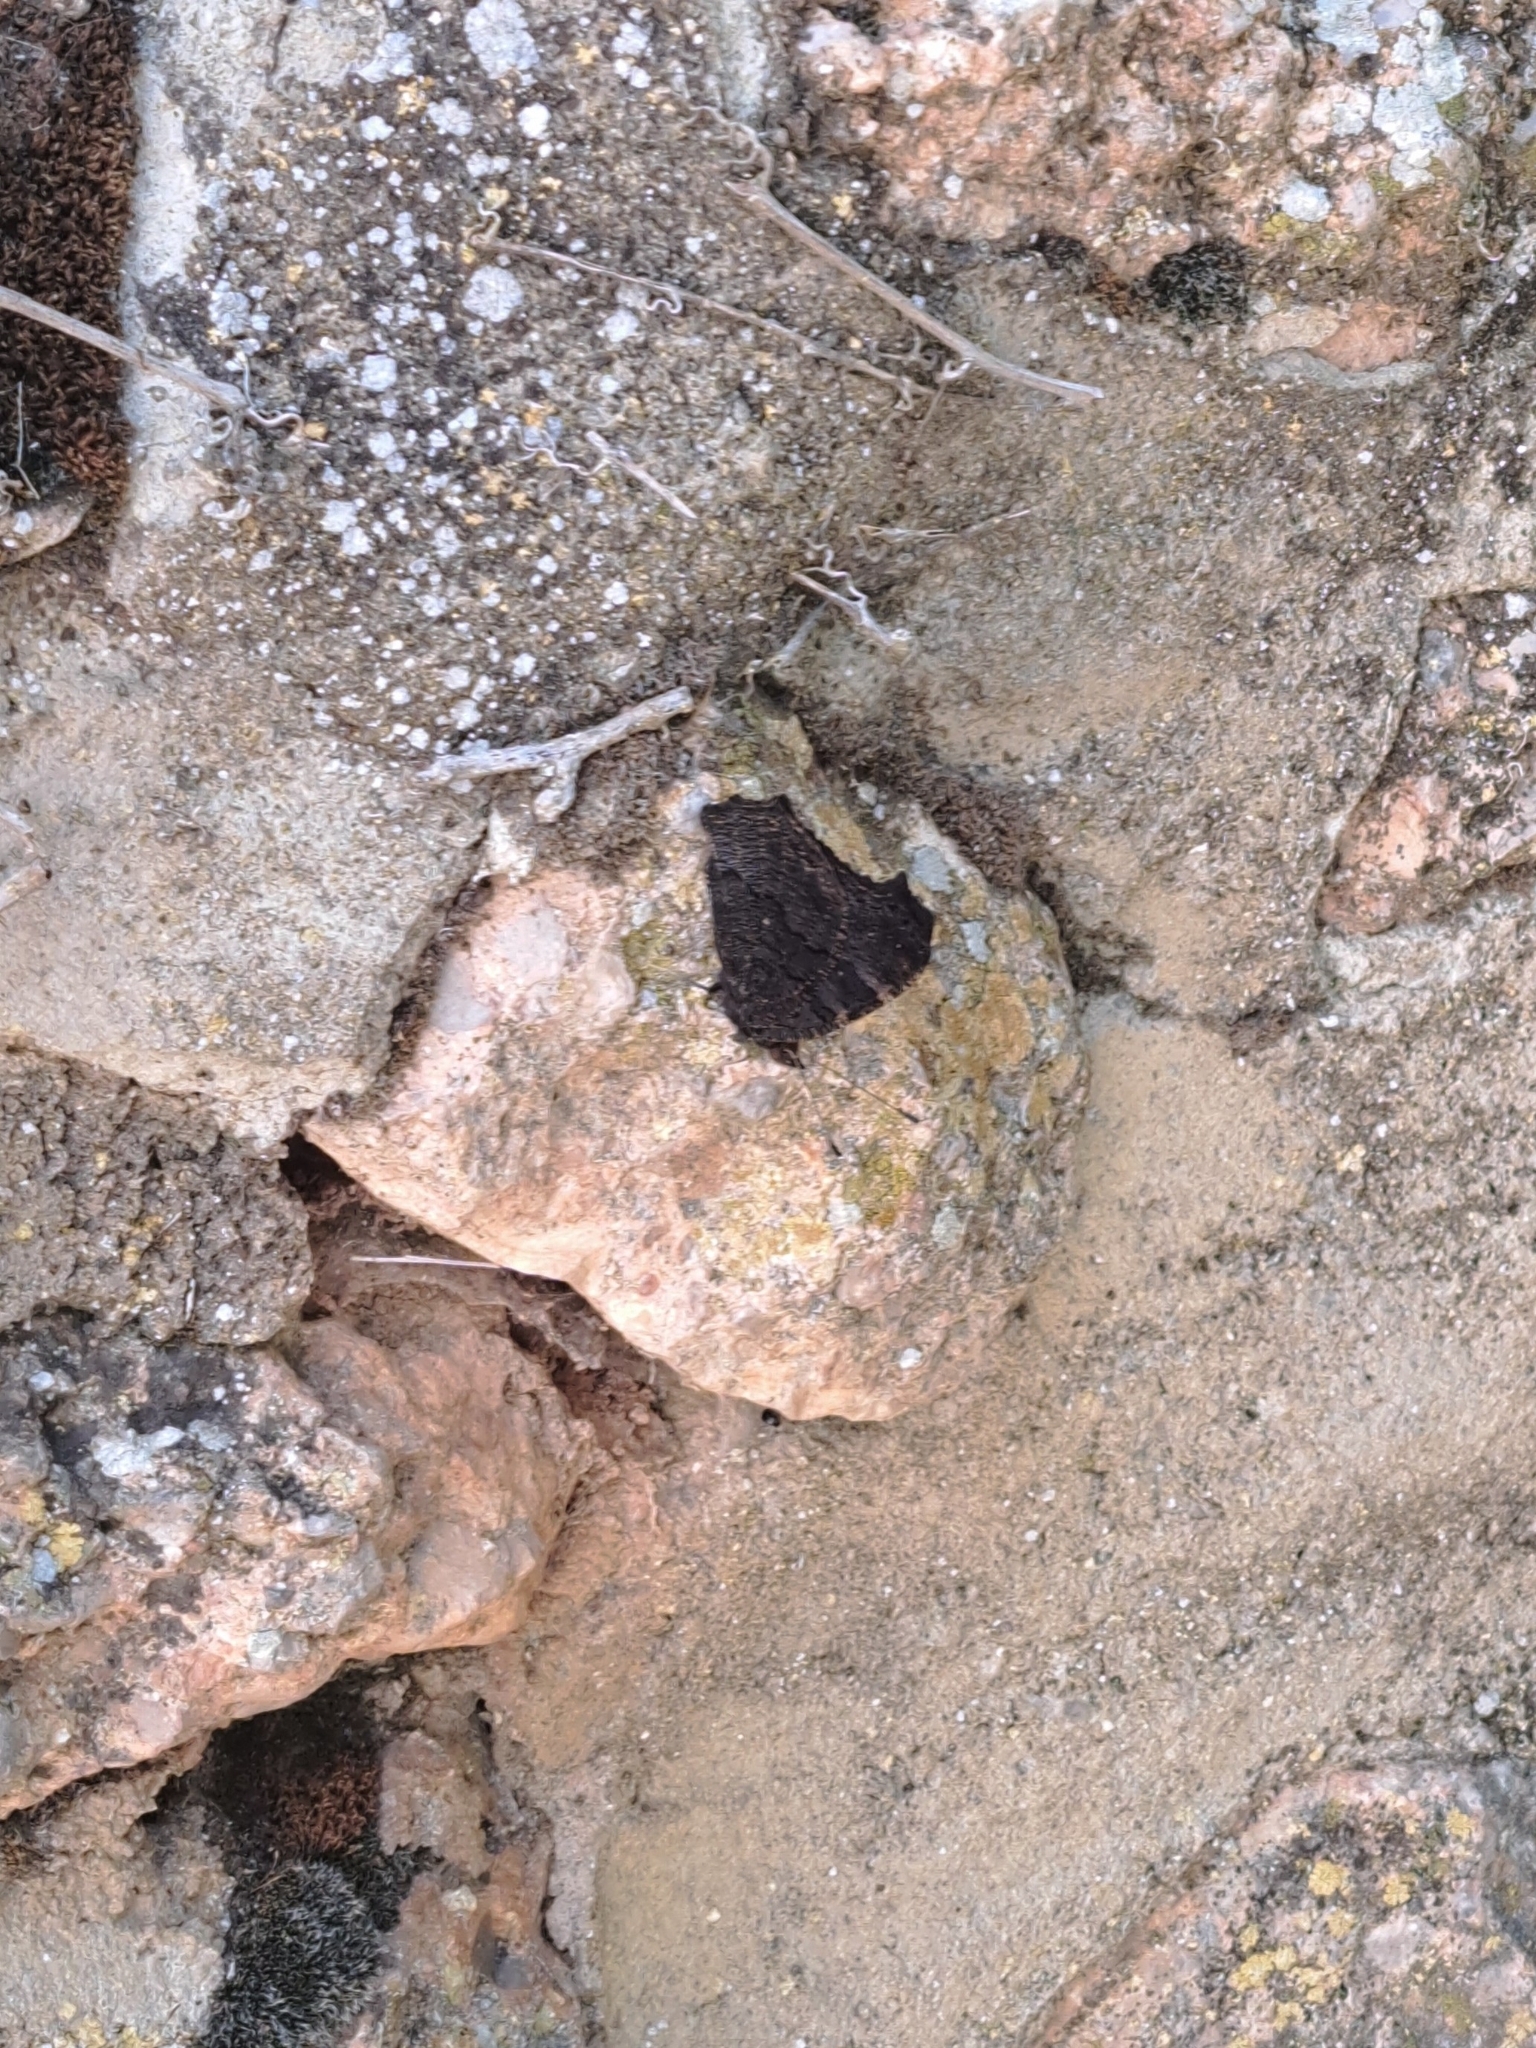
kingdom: Animalia
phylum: Arthropoda
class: Insecta
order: Lepidoptera
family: Nymphalidae
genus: Aglais
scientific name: Aglais io
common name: Peacock
